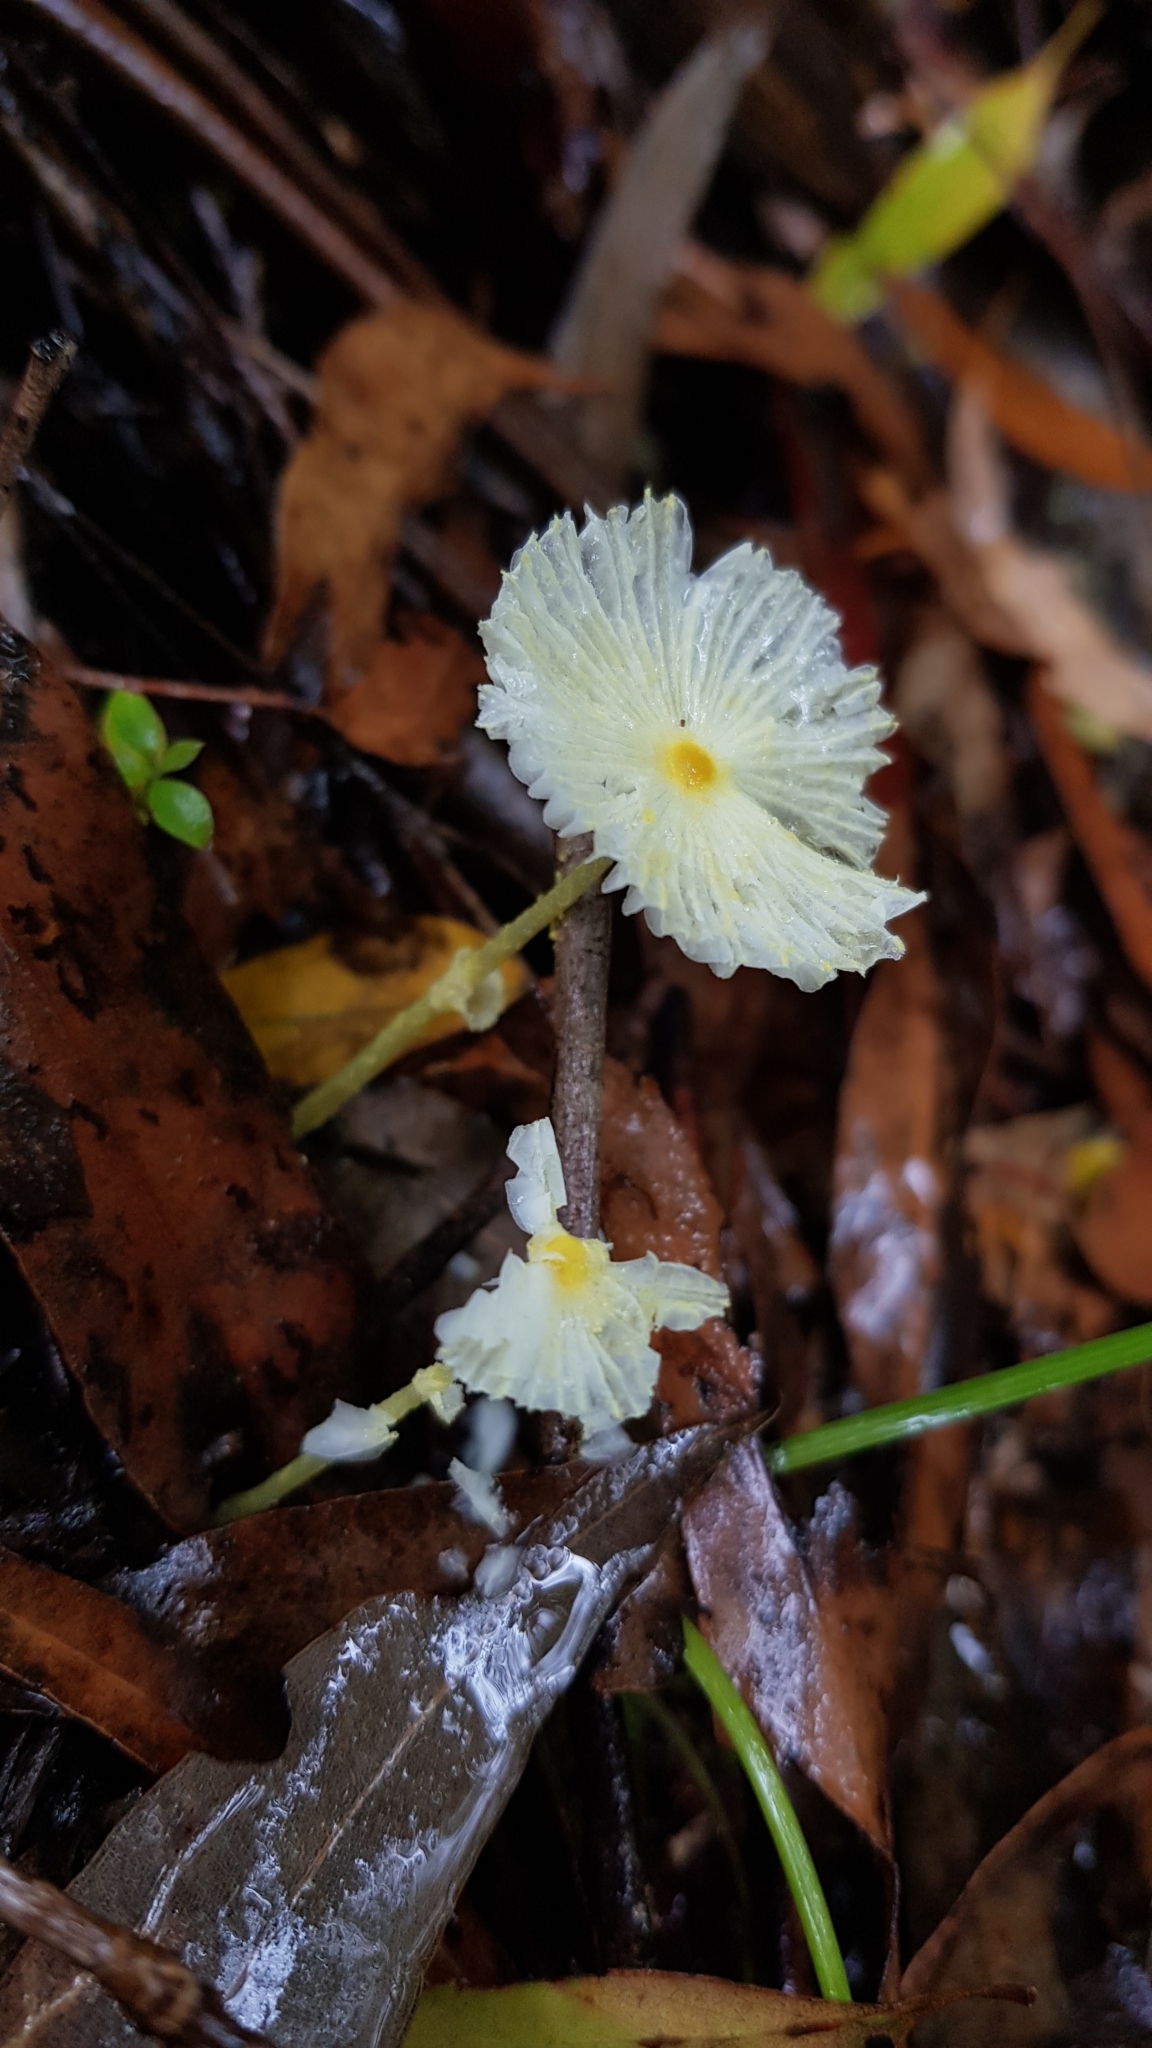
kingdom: Fungi
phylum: Basidiomycota
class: Agaricomycetes
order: Agaricales
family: Agaricaceae
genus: Leucocoprinus
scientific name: Leucocoprinus fragilissimus
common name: Fragile dapperling
